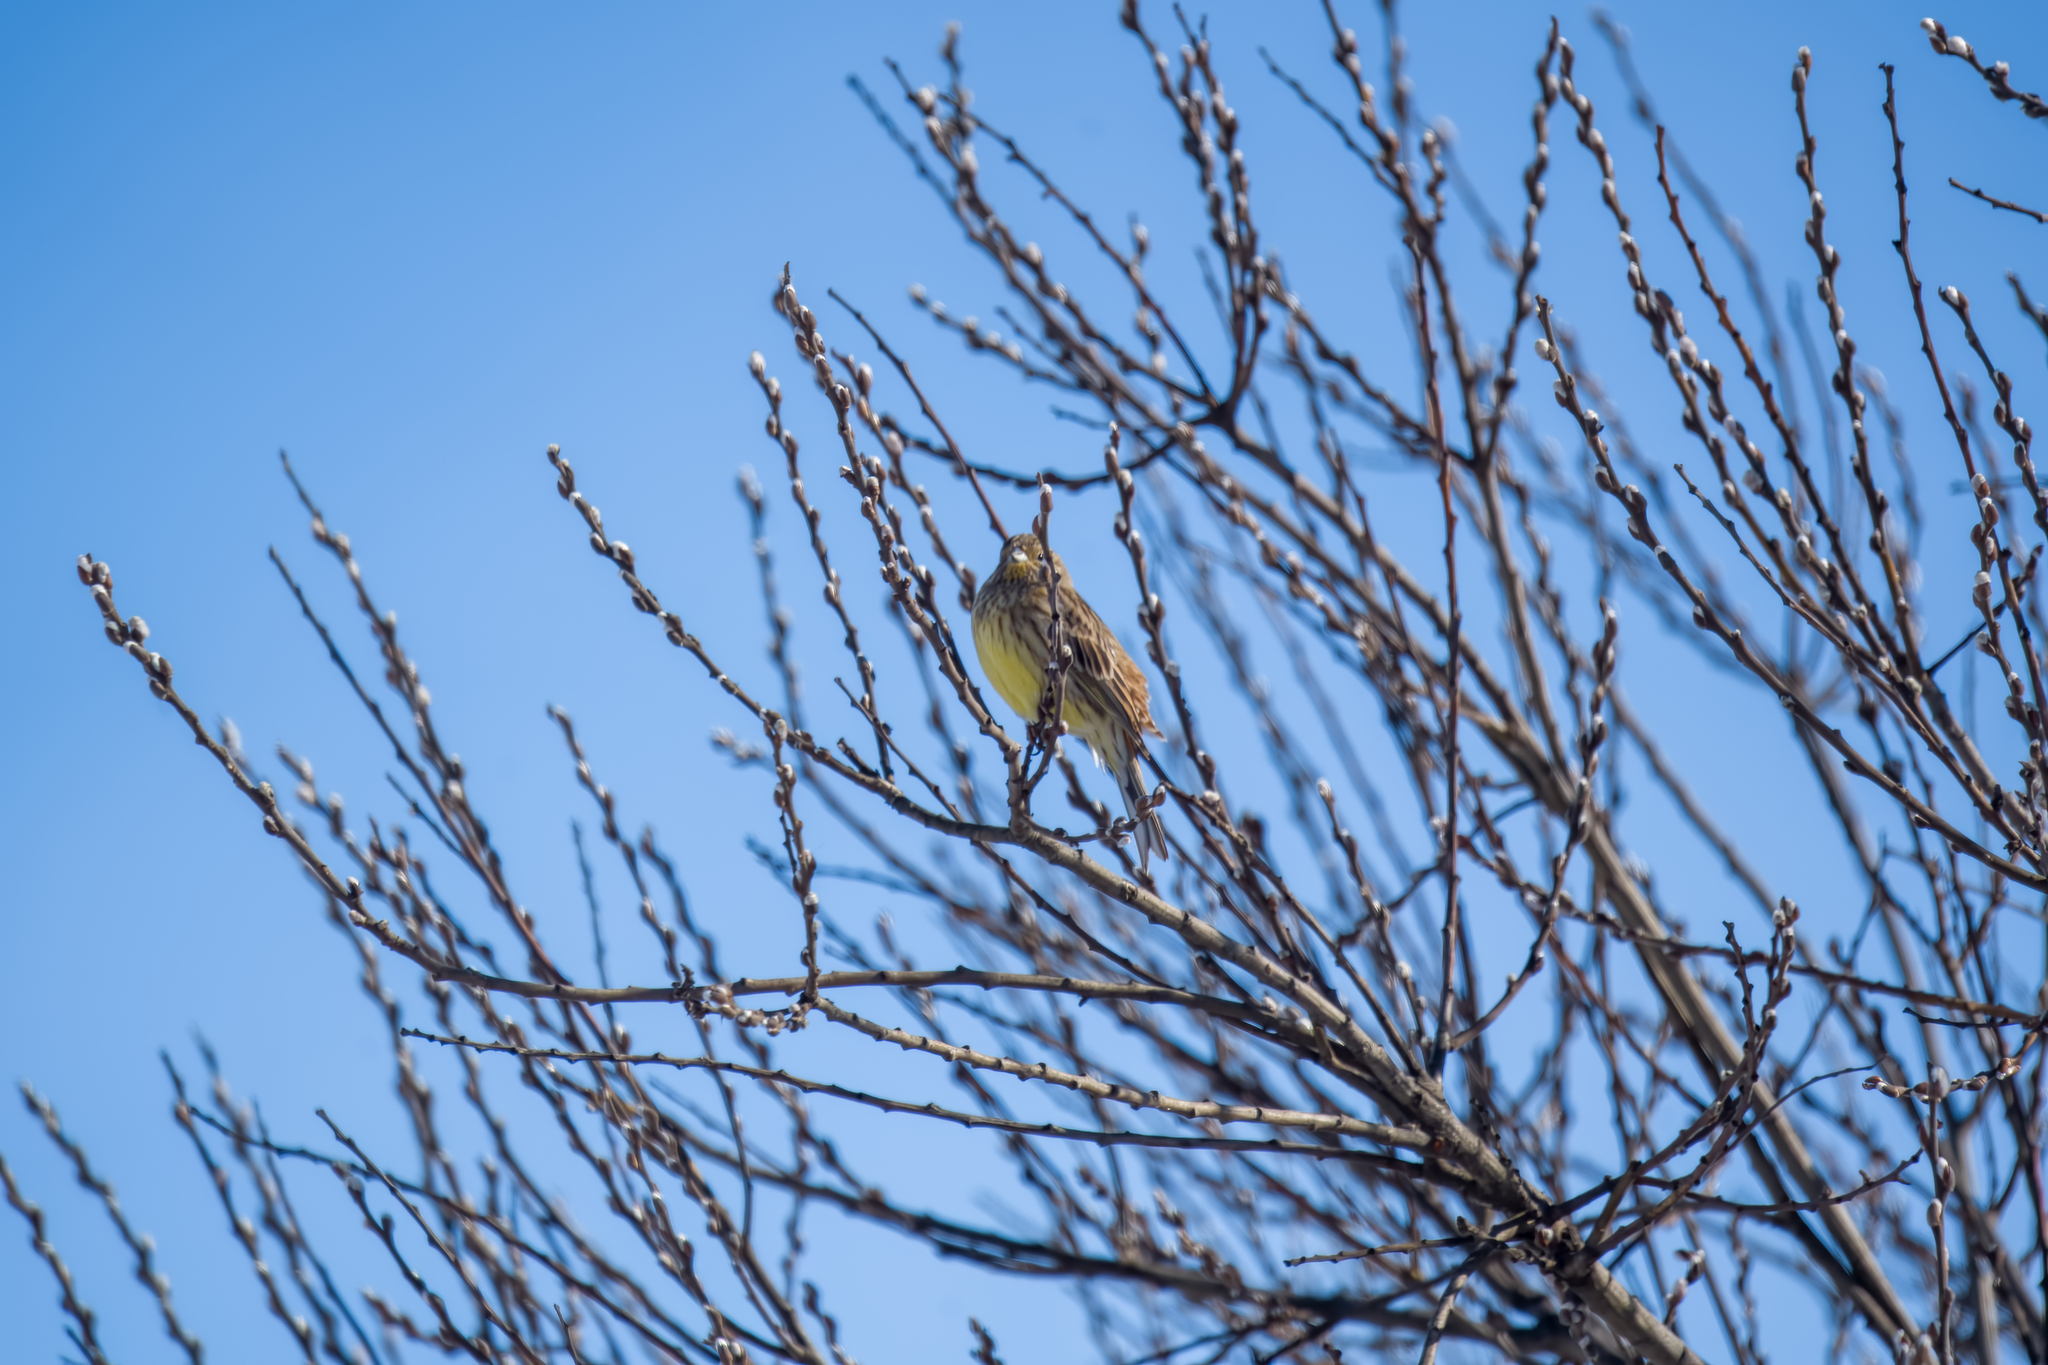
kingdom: Animalia
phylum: Chordata
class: Aves
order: Passeriformes
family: Emberizidae
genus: Emberiza
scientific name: Emberiza citrinella
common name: Yellowhammer
